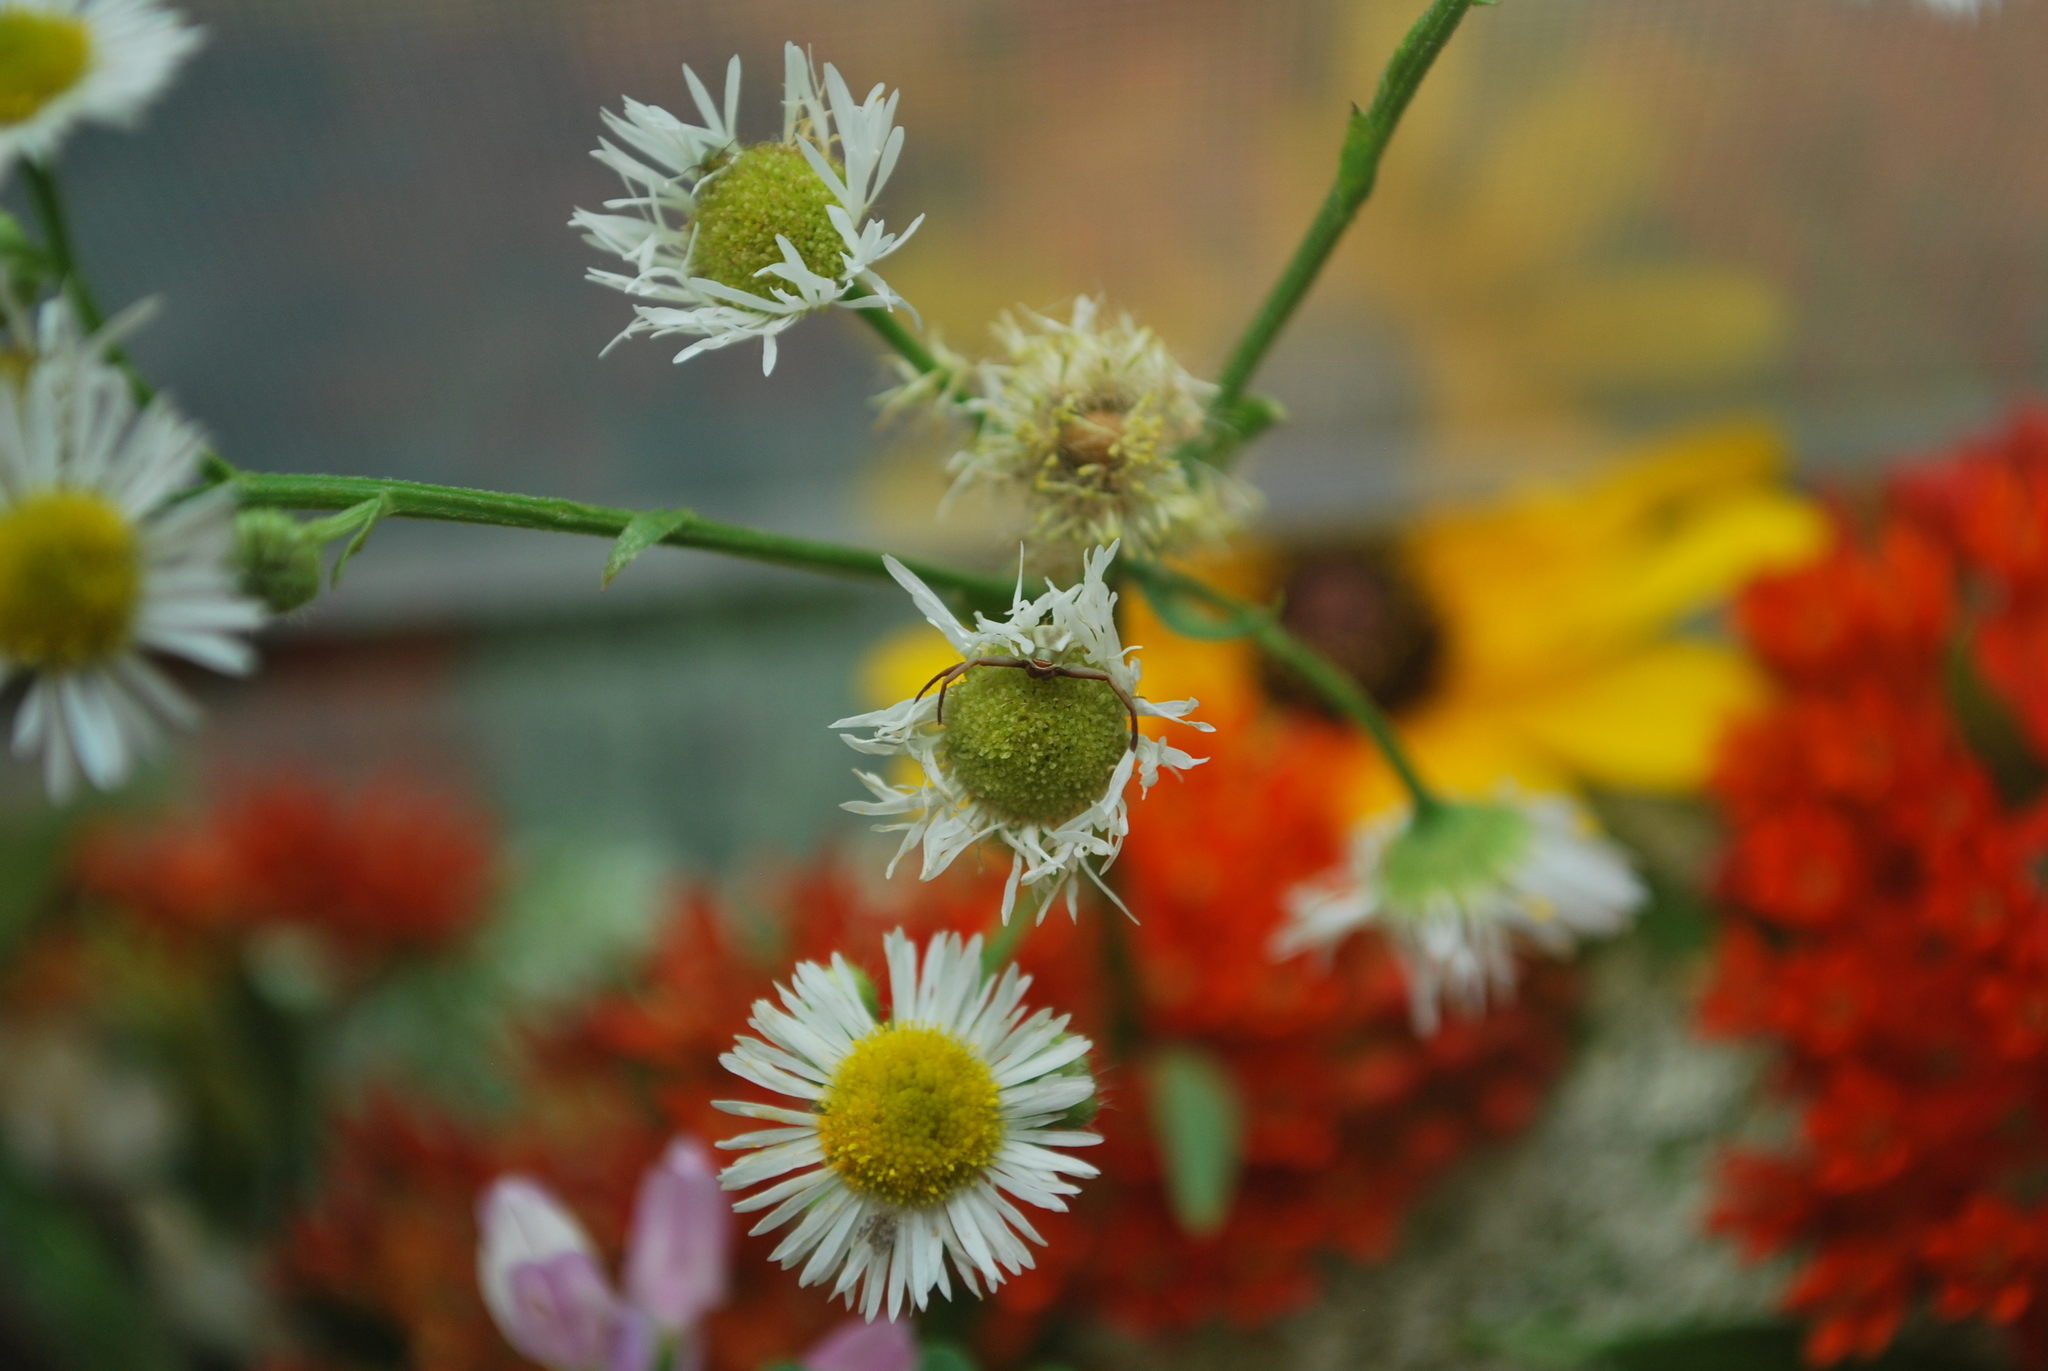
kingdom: Animalia
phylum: Arthropoda
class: Arachnida
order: Araneae
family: Thomisidae
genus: Misumenoides
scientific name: Misumenoides formosipes
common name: White-banded crab spider
